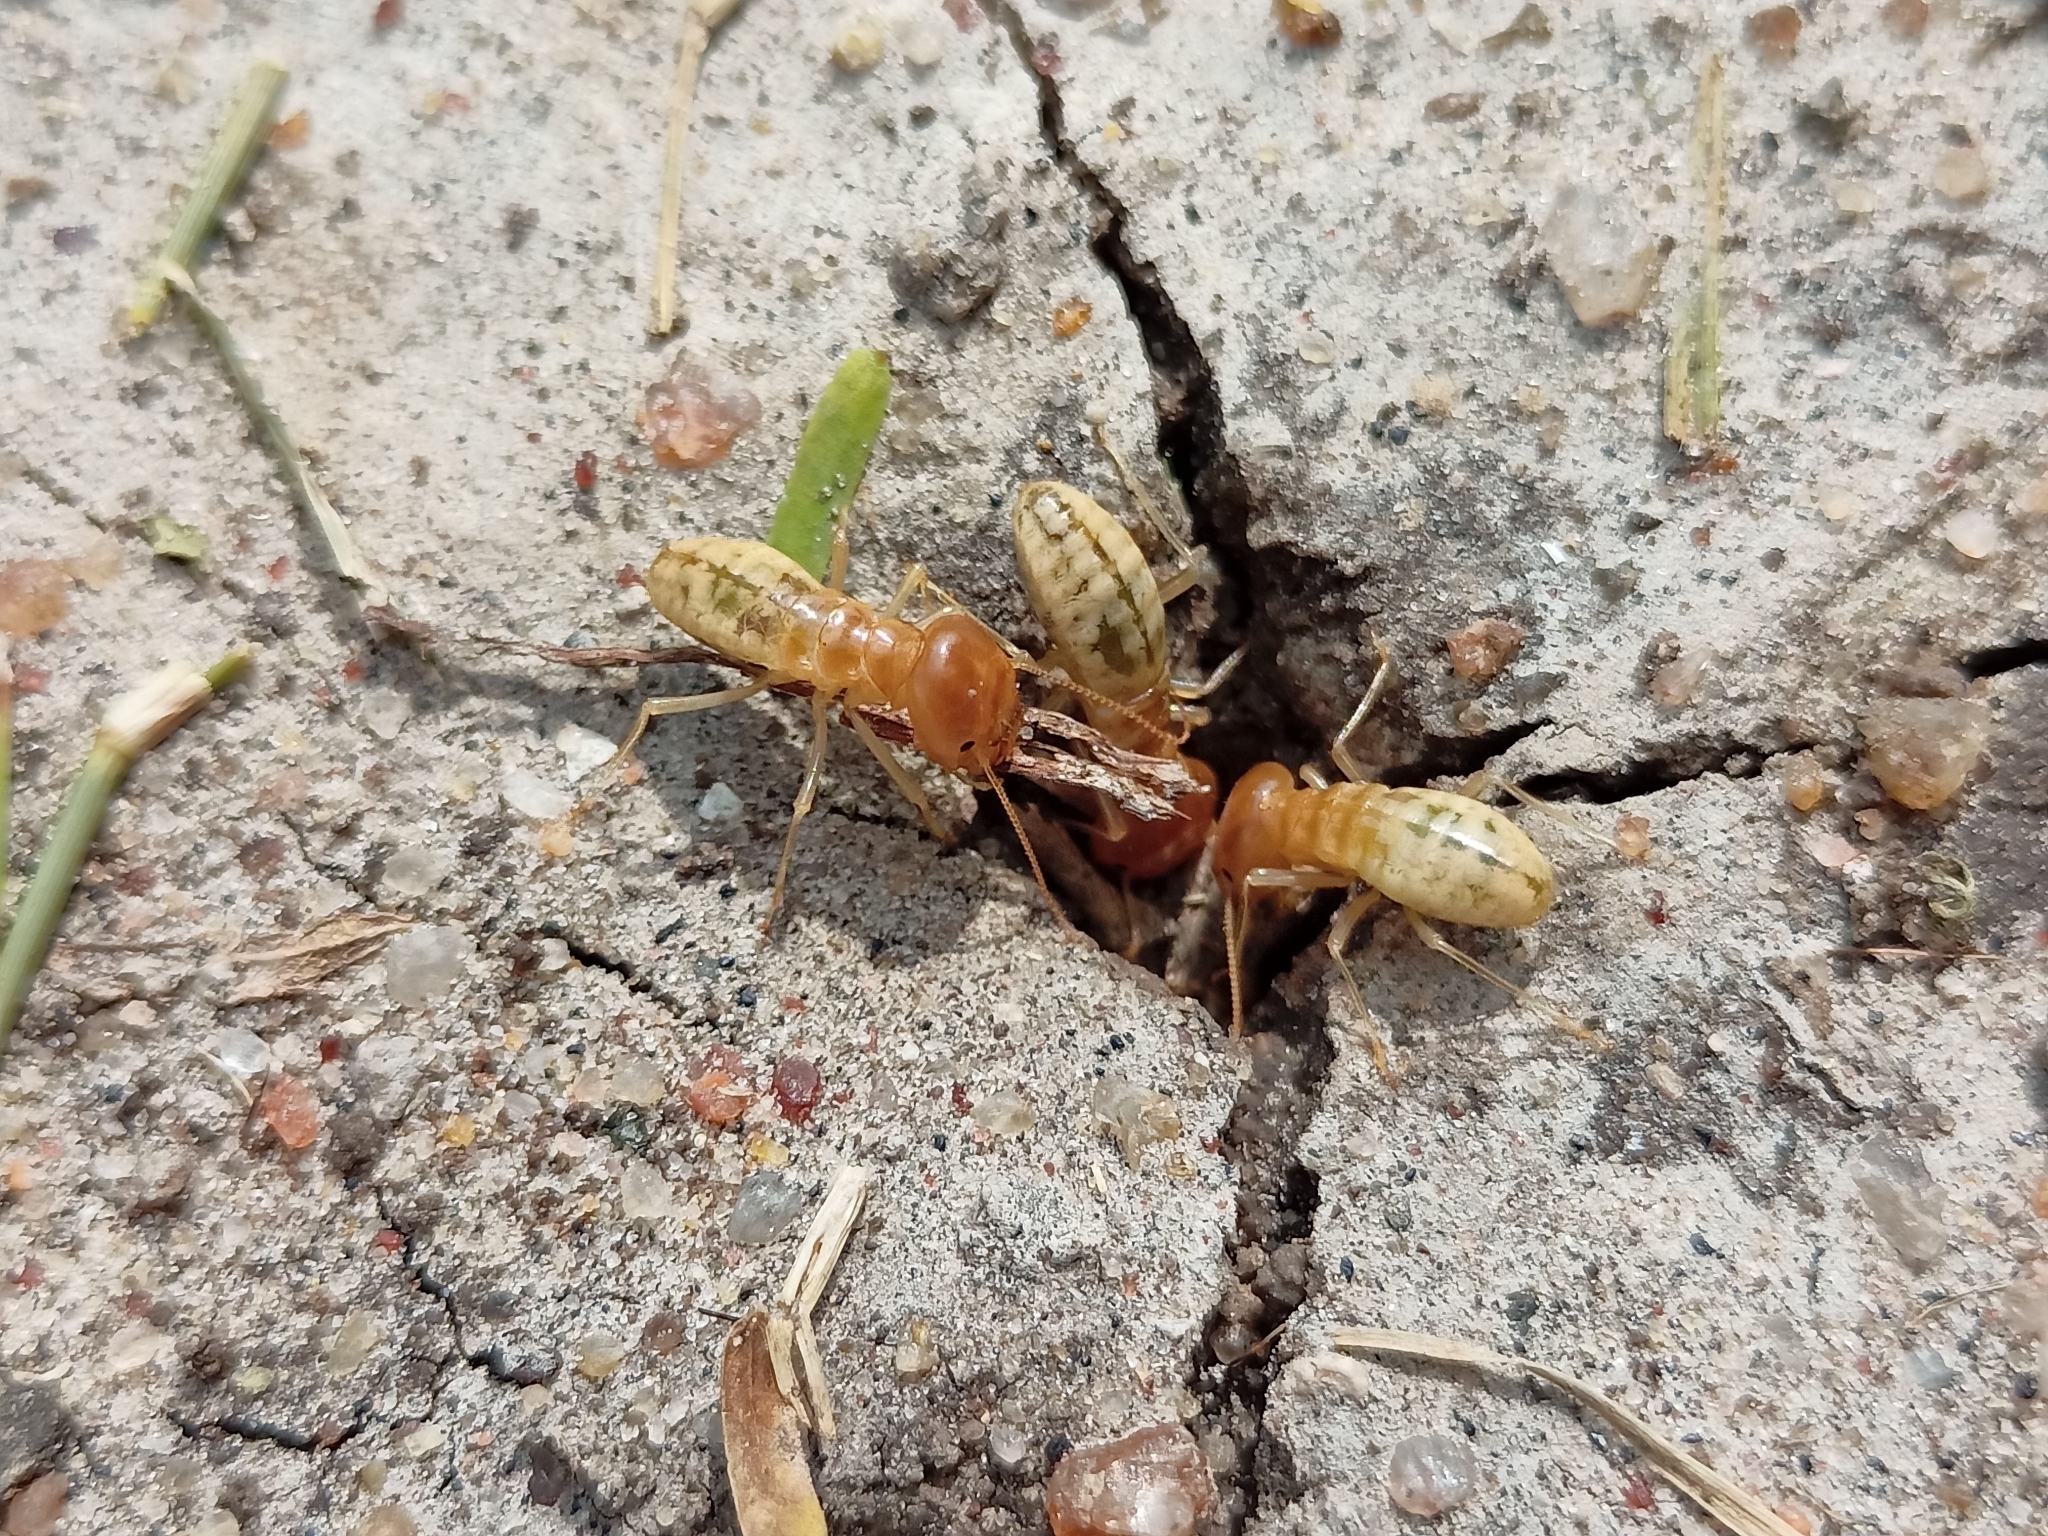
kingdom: Animalia
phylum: Arthropoda
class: Insecta
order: Blattodea
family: Hodotermitidae
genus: Anacanthotermes
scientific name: Anacanthotermes viarum
